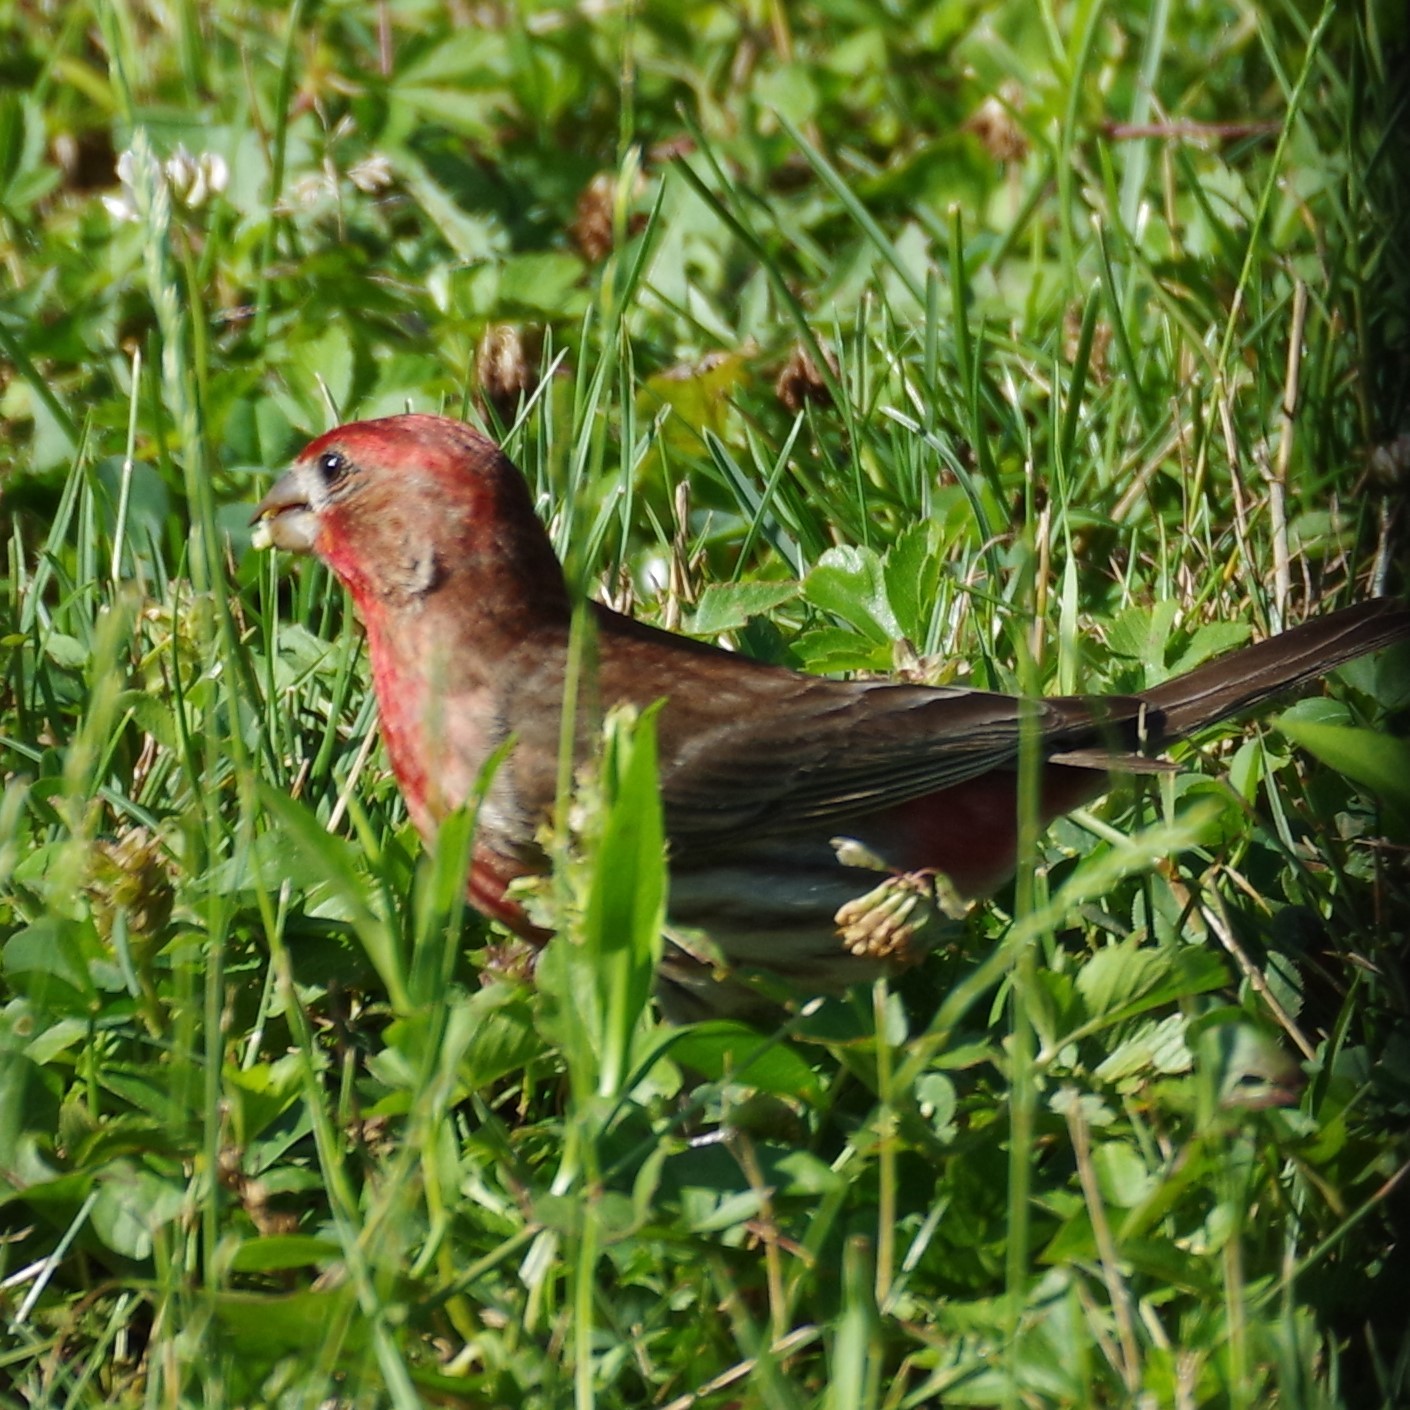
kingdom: Animalia
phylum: Chordata
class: Aves
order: Passeriformes
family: Fringillidae
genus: Haemorhous
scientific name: Haemorhous mexicanus
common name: House finch
